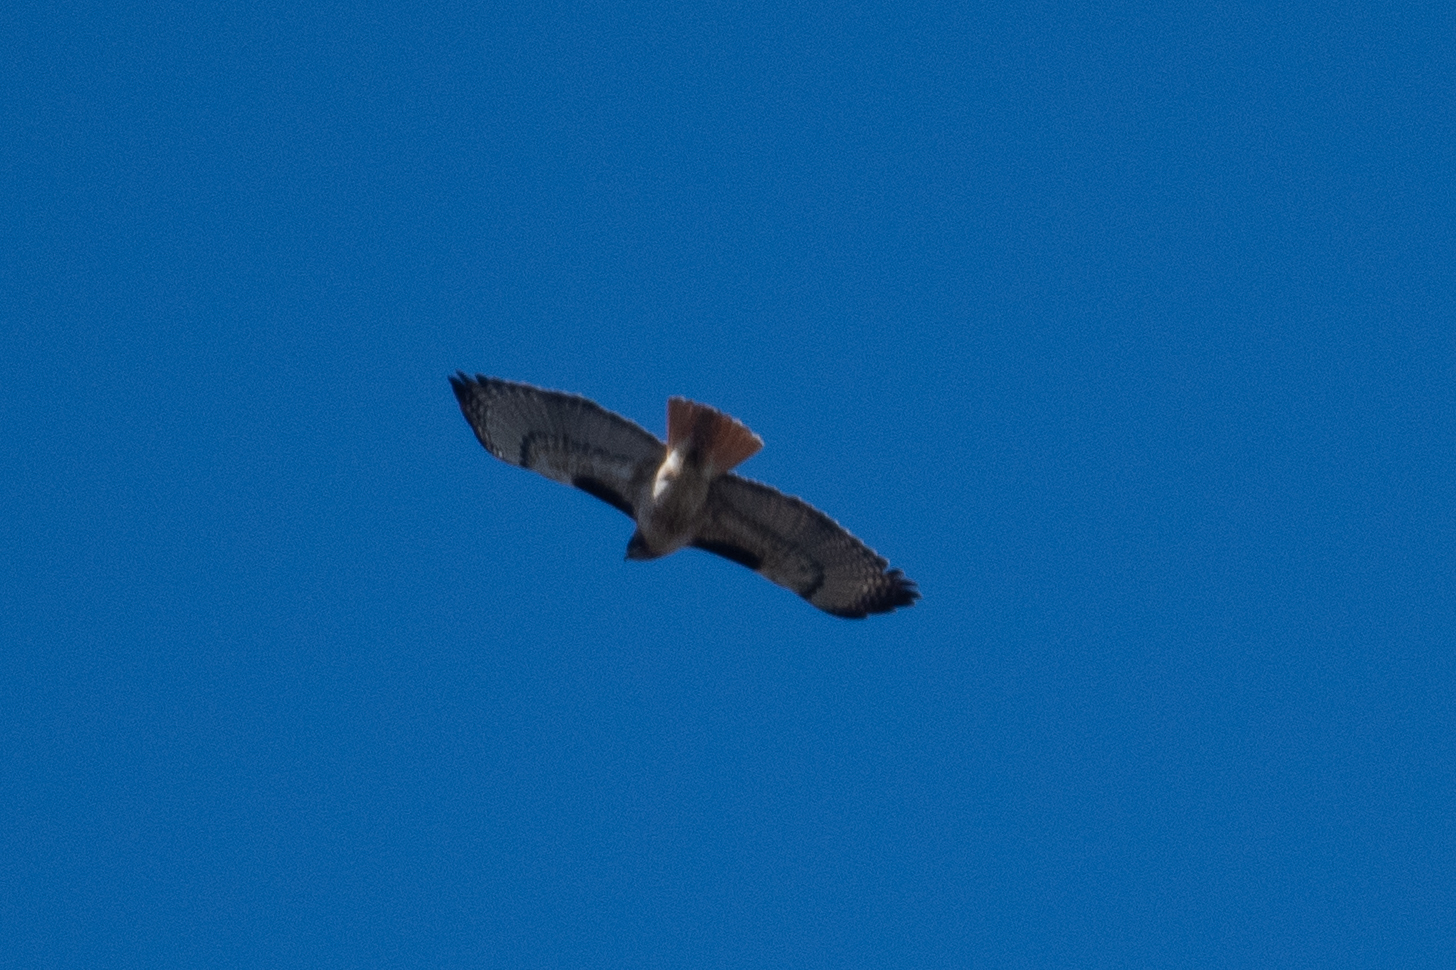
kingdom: Animalia
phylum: Chordata
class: Aves
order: Accipitriformes
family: Accipitridae
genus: Buteo
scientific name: Buteo jamaicensis
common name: Red-tailed hawk
